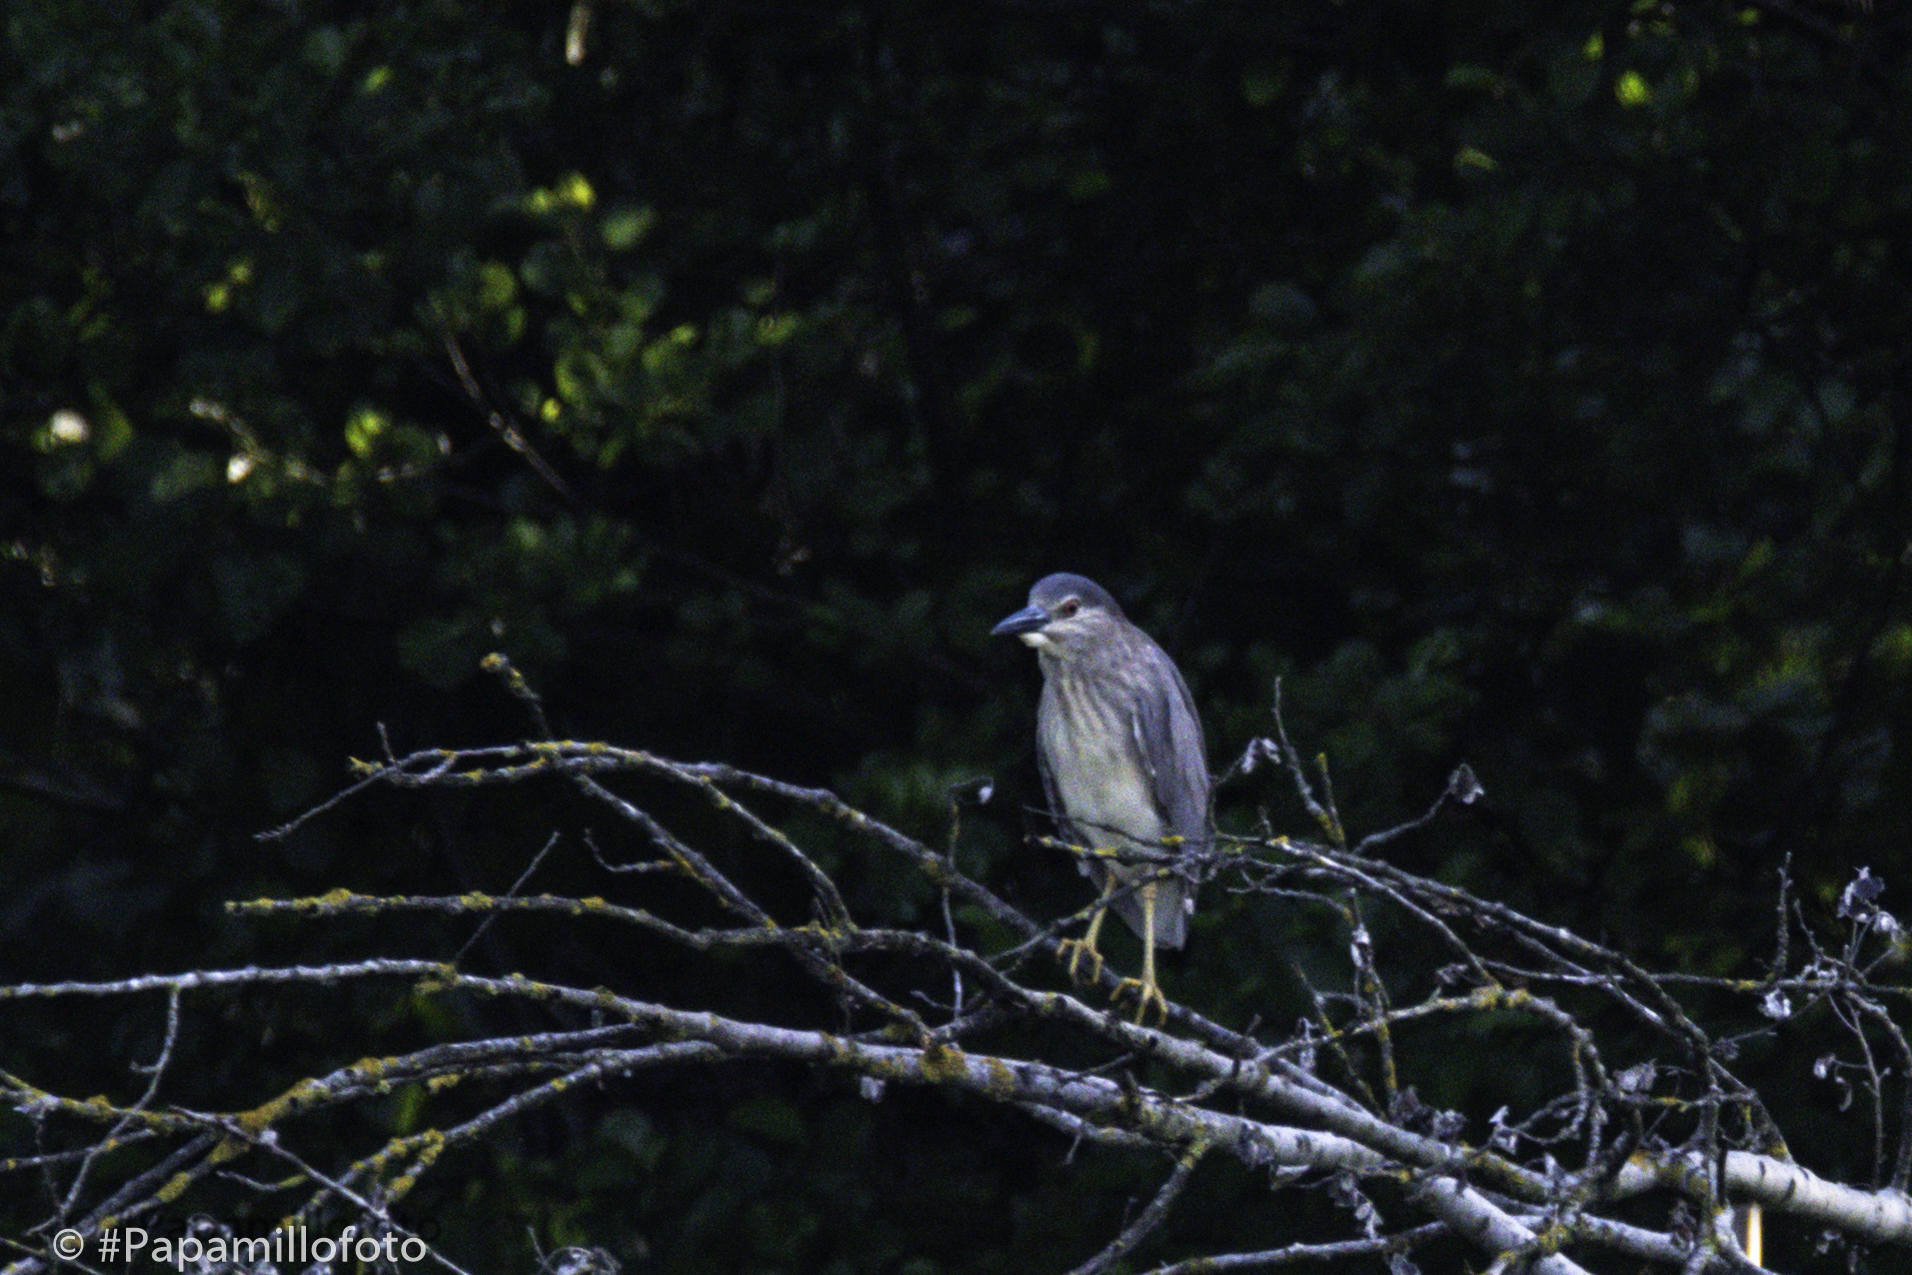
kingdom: Animalia
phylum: Chordata
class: Aves
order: Pelecaniformes
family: Ardeidae
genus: Nycticorax
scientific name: Nycticorax nycticorax
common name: Black-crowned night heron
